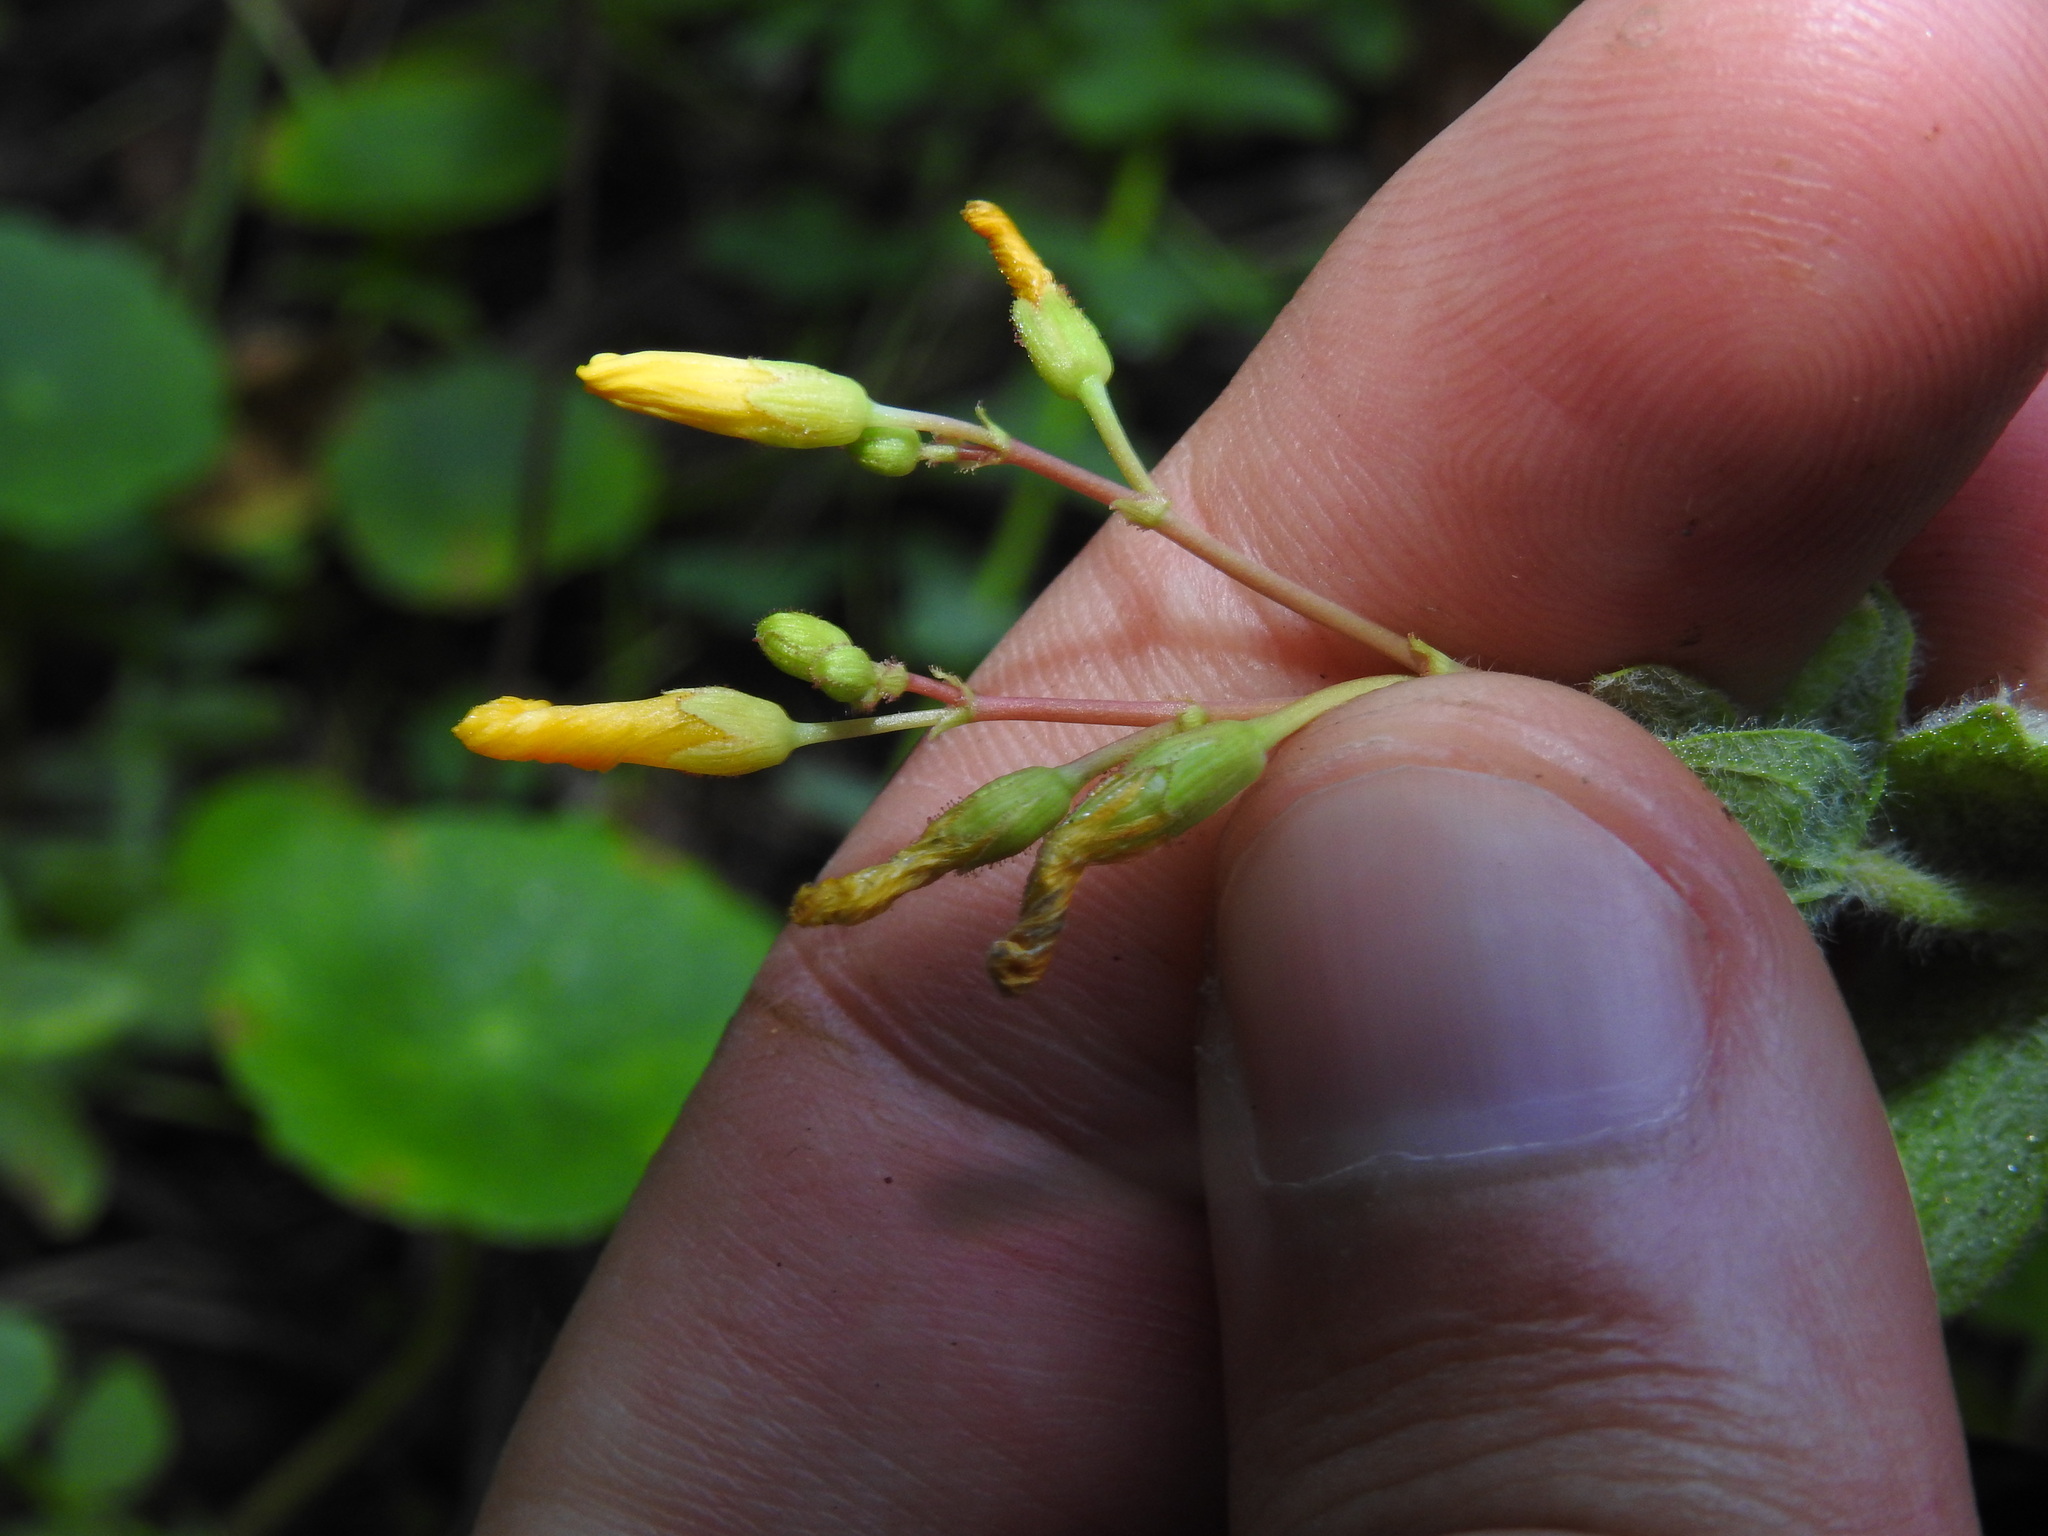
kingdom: Plantae
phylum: Tracheophyta
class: Magnoliopsida
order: Malpighiales
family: Hypericaceae
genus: Hypericum
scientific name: Hypericum elodes
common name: Marsh st. john's-wort
